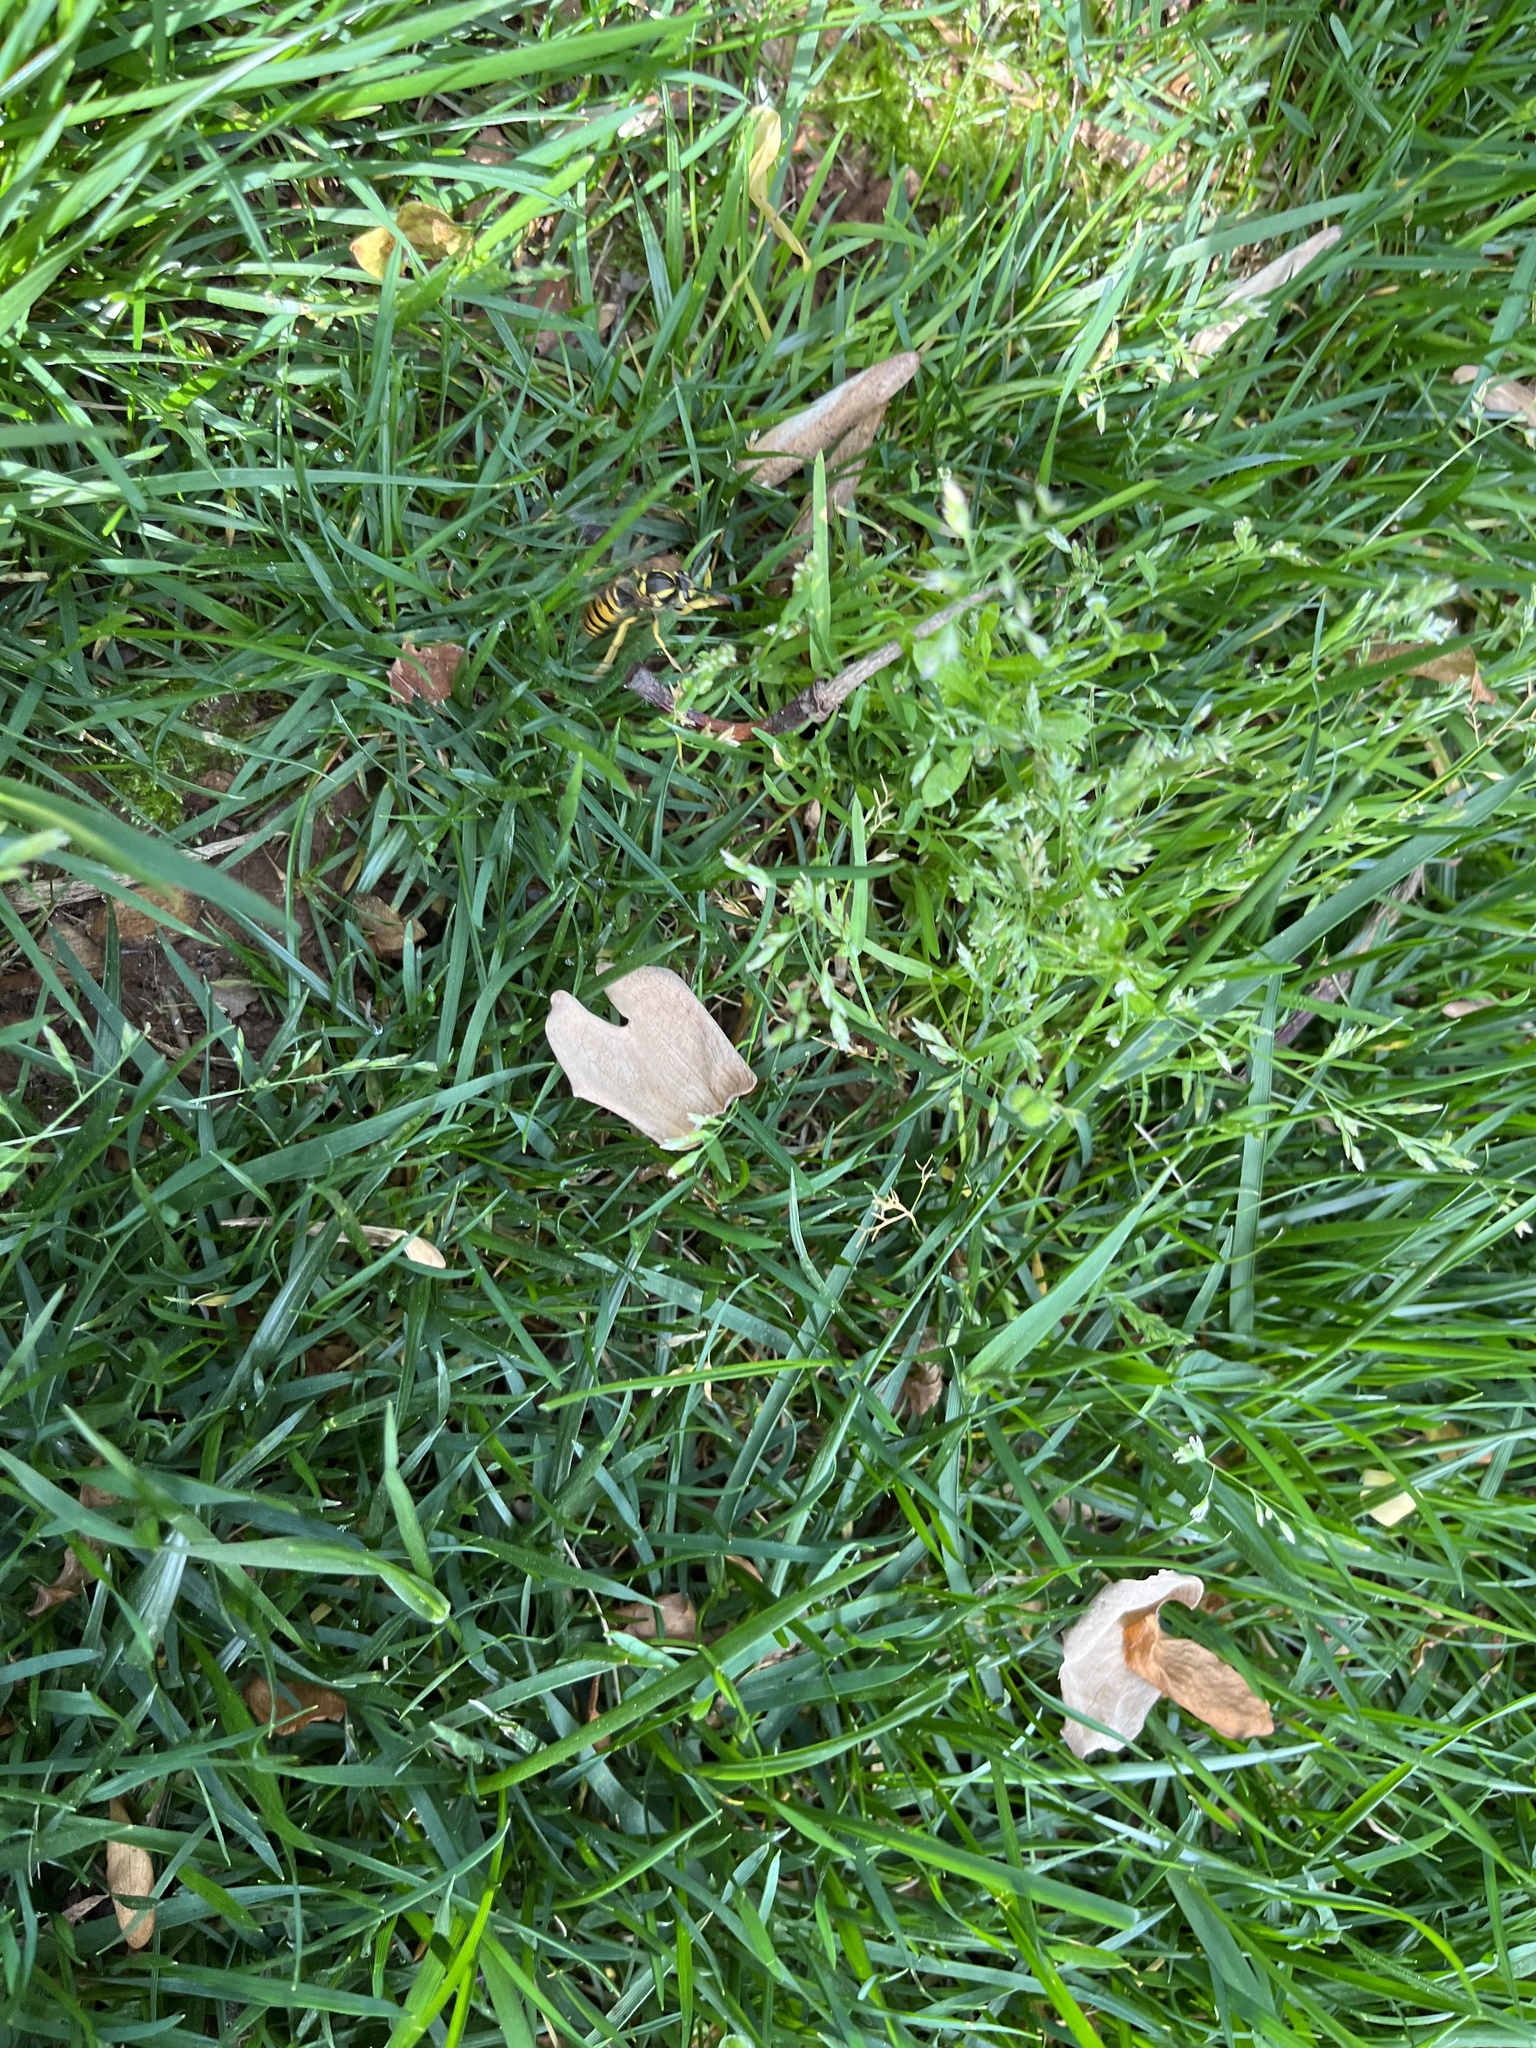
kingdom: Animalia
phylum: Arthropoda
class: Insecta
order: Hymenoptera
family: Vespidae
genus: Vespula
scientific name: Vespula maculifrons
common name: Eastern yellowjacket
